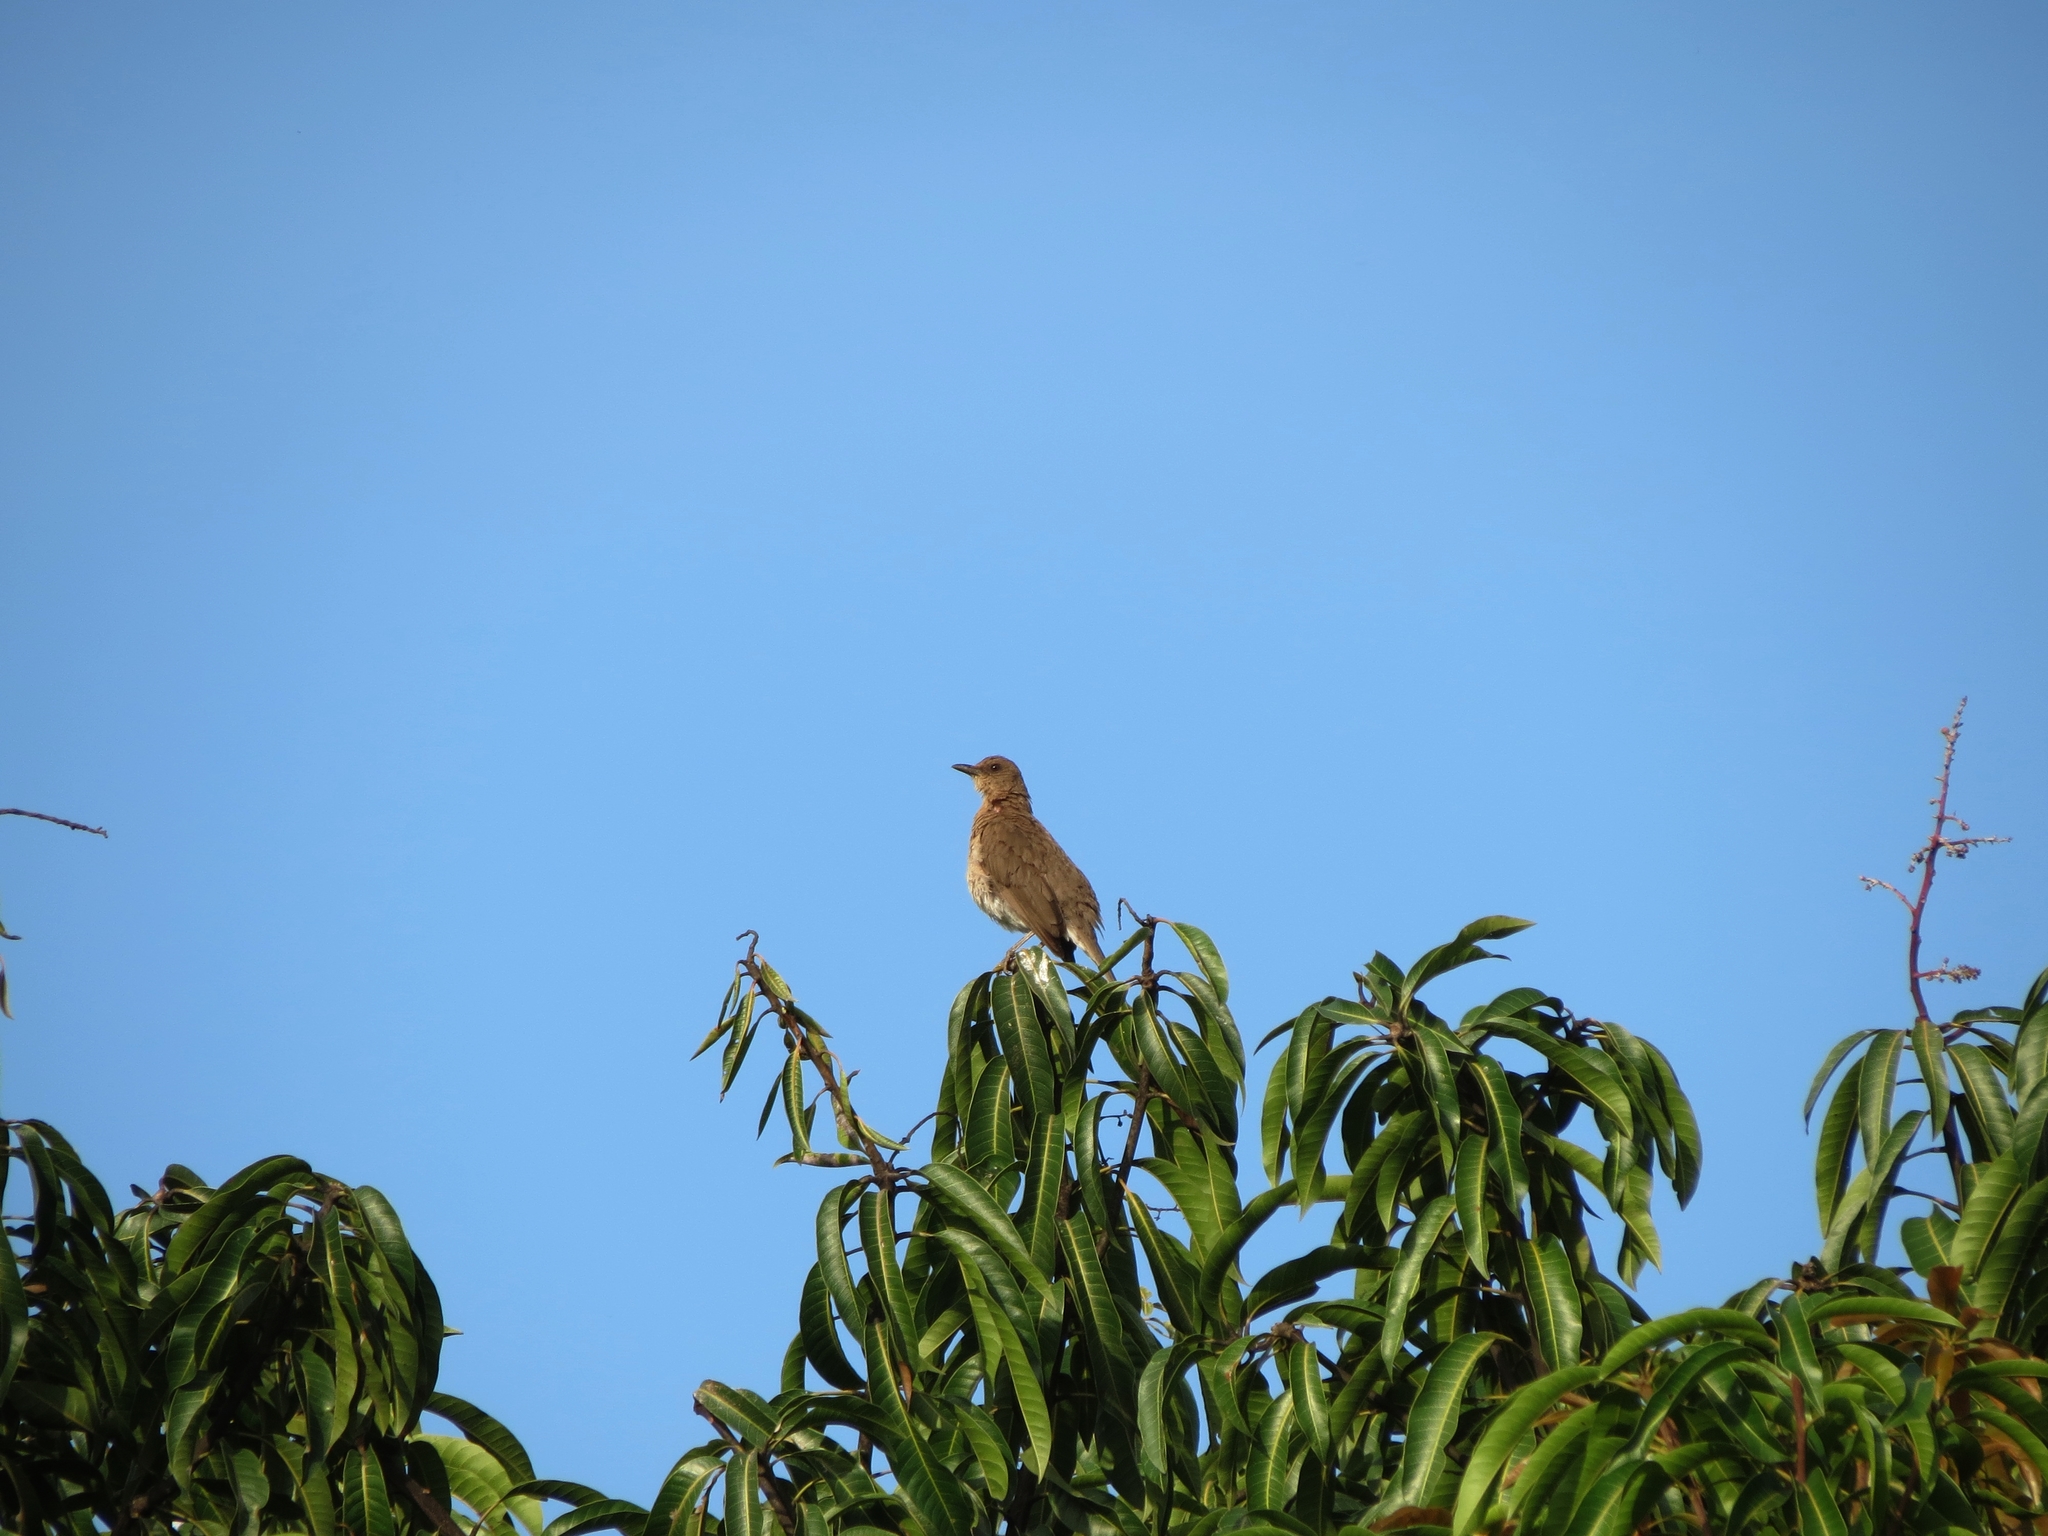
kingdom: Animalia
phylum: Chordata
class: Aves
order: Passeriformes
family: Turdidae
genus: Turdus
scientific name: Turdus ignobilis
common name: Black-billed thrush
